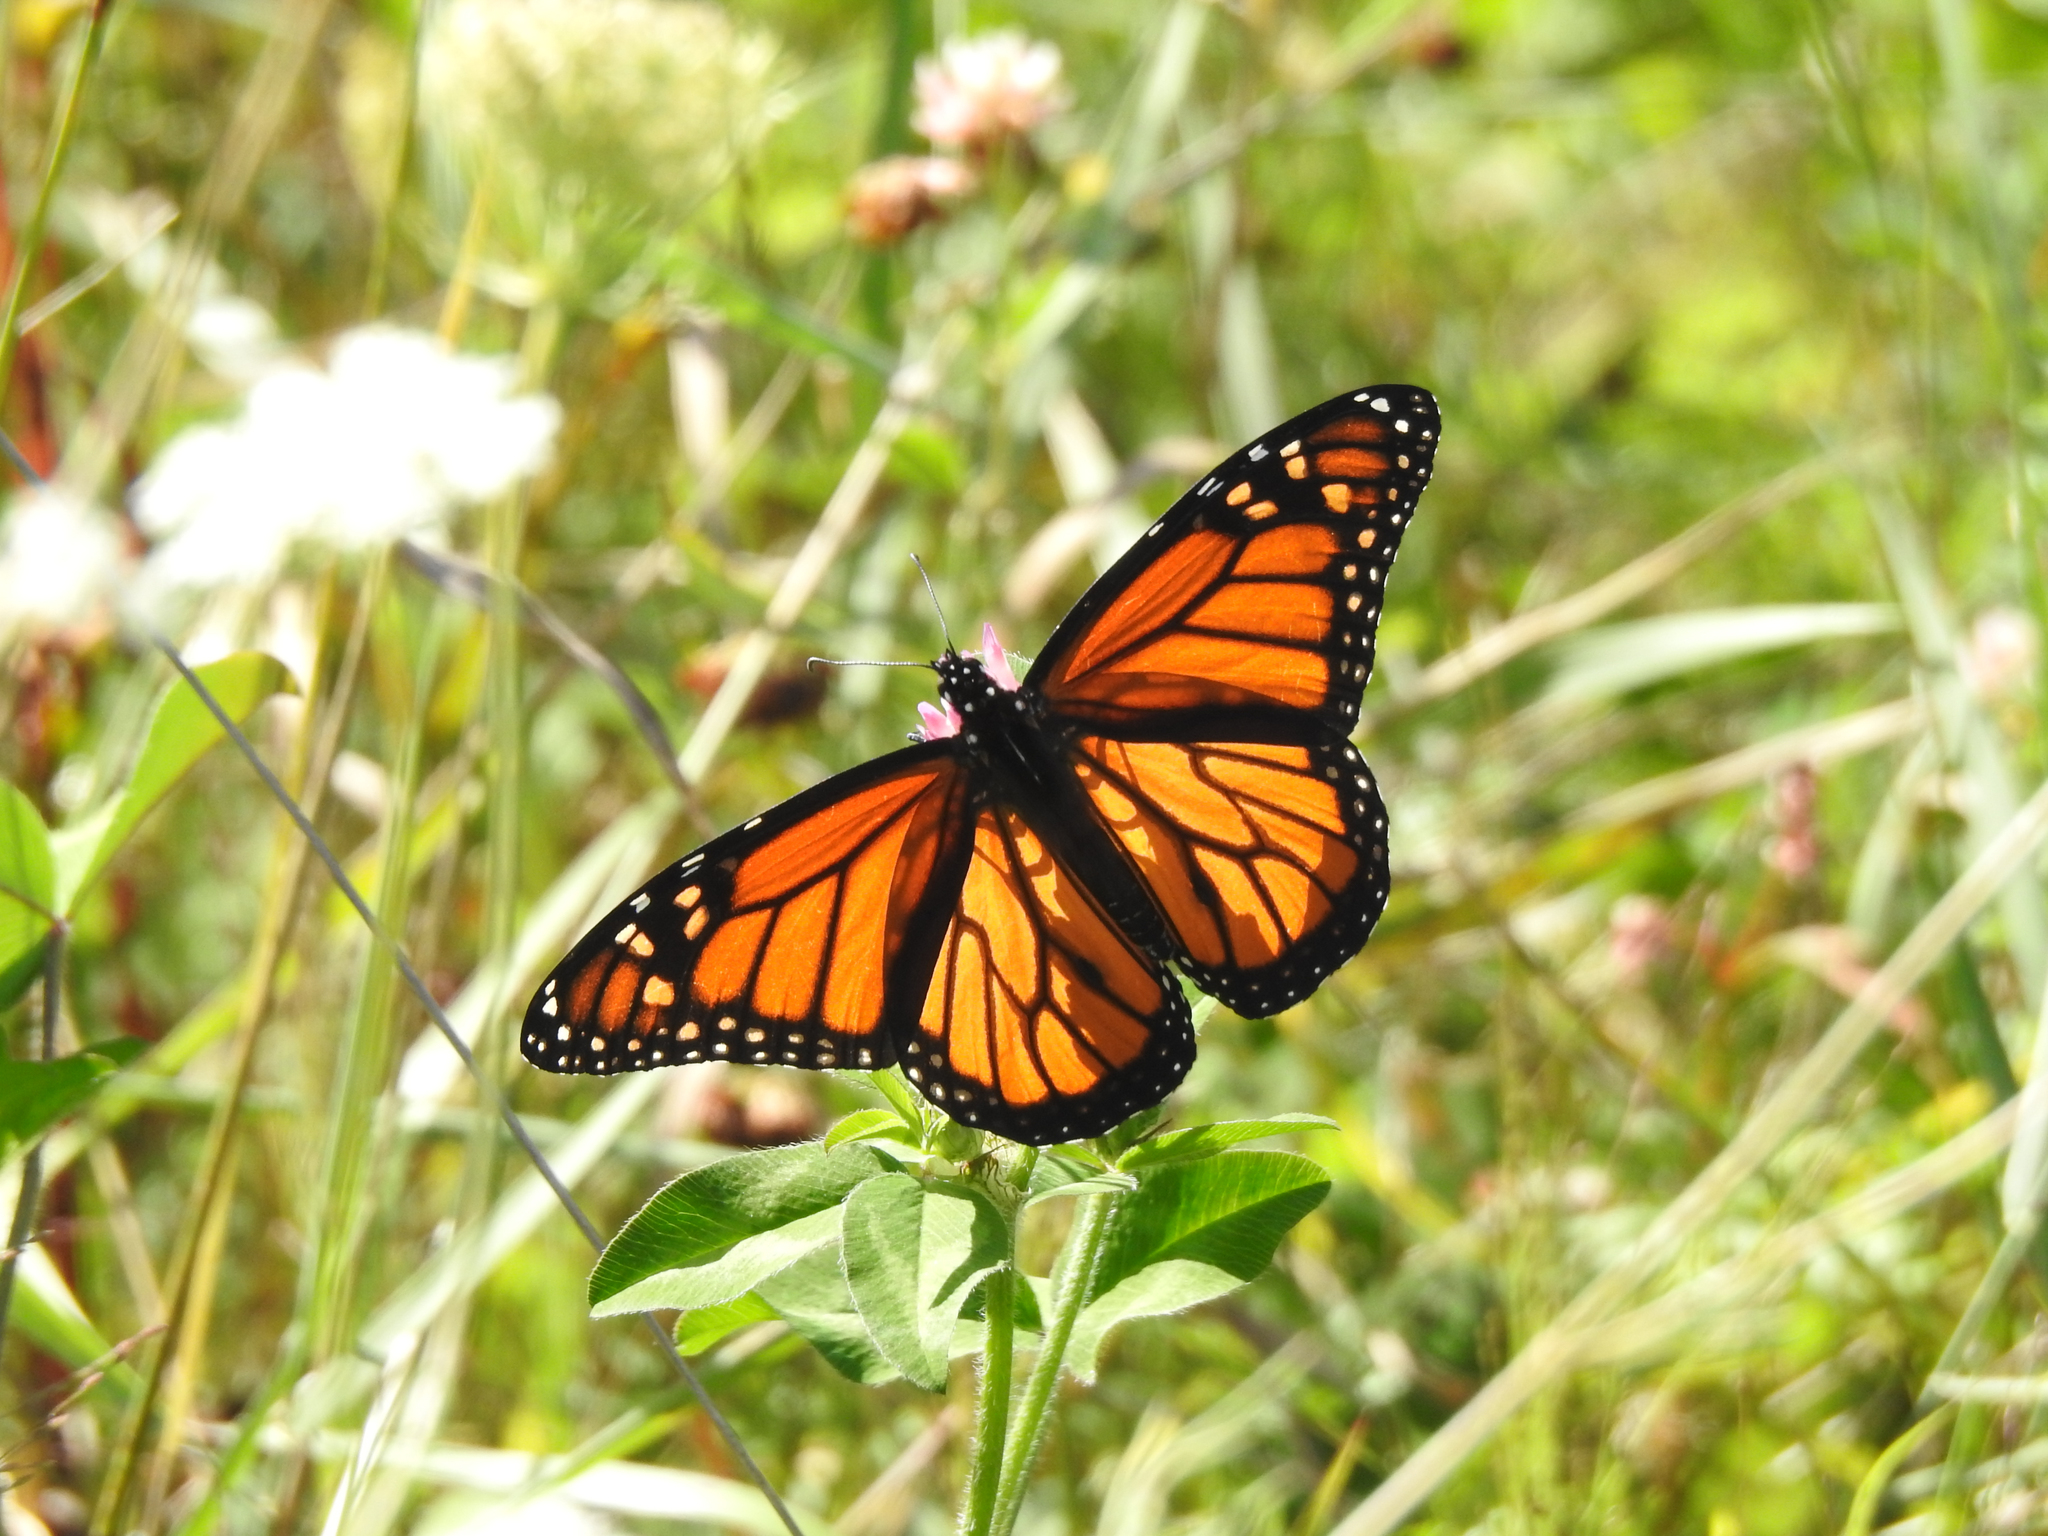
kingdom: Animalia
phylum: Arthropoda
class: Insecta
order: Lepidoptera
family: Nymphalidae
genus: Danaus
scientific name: Danaus plexippus
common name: Monarch
